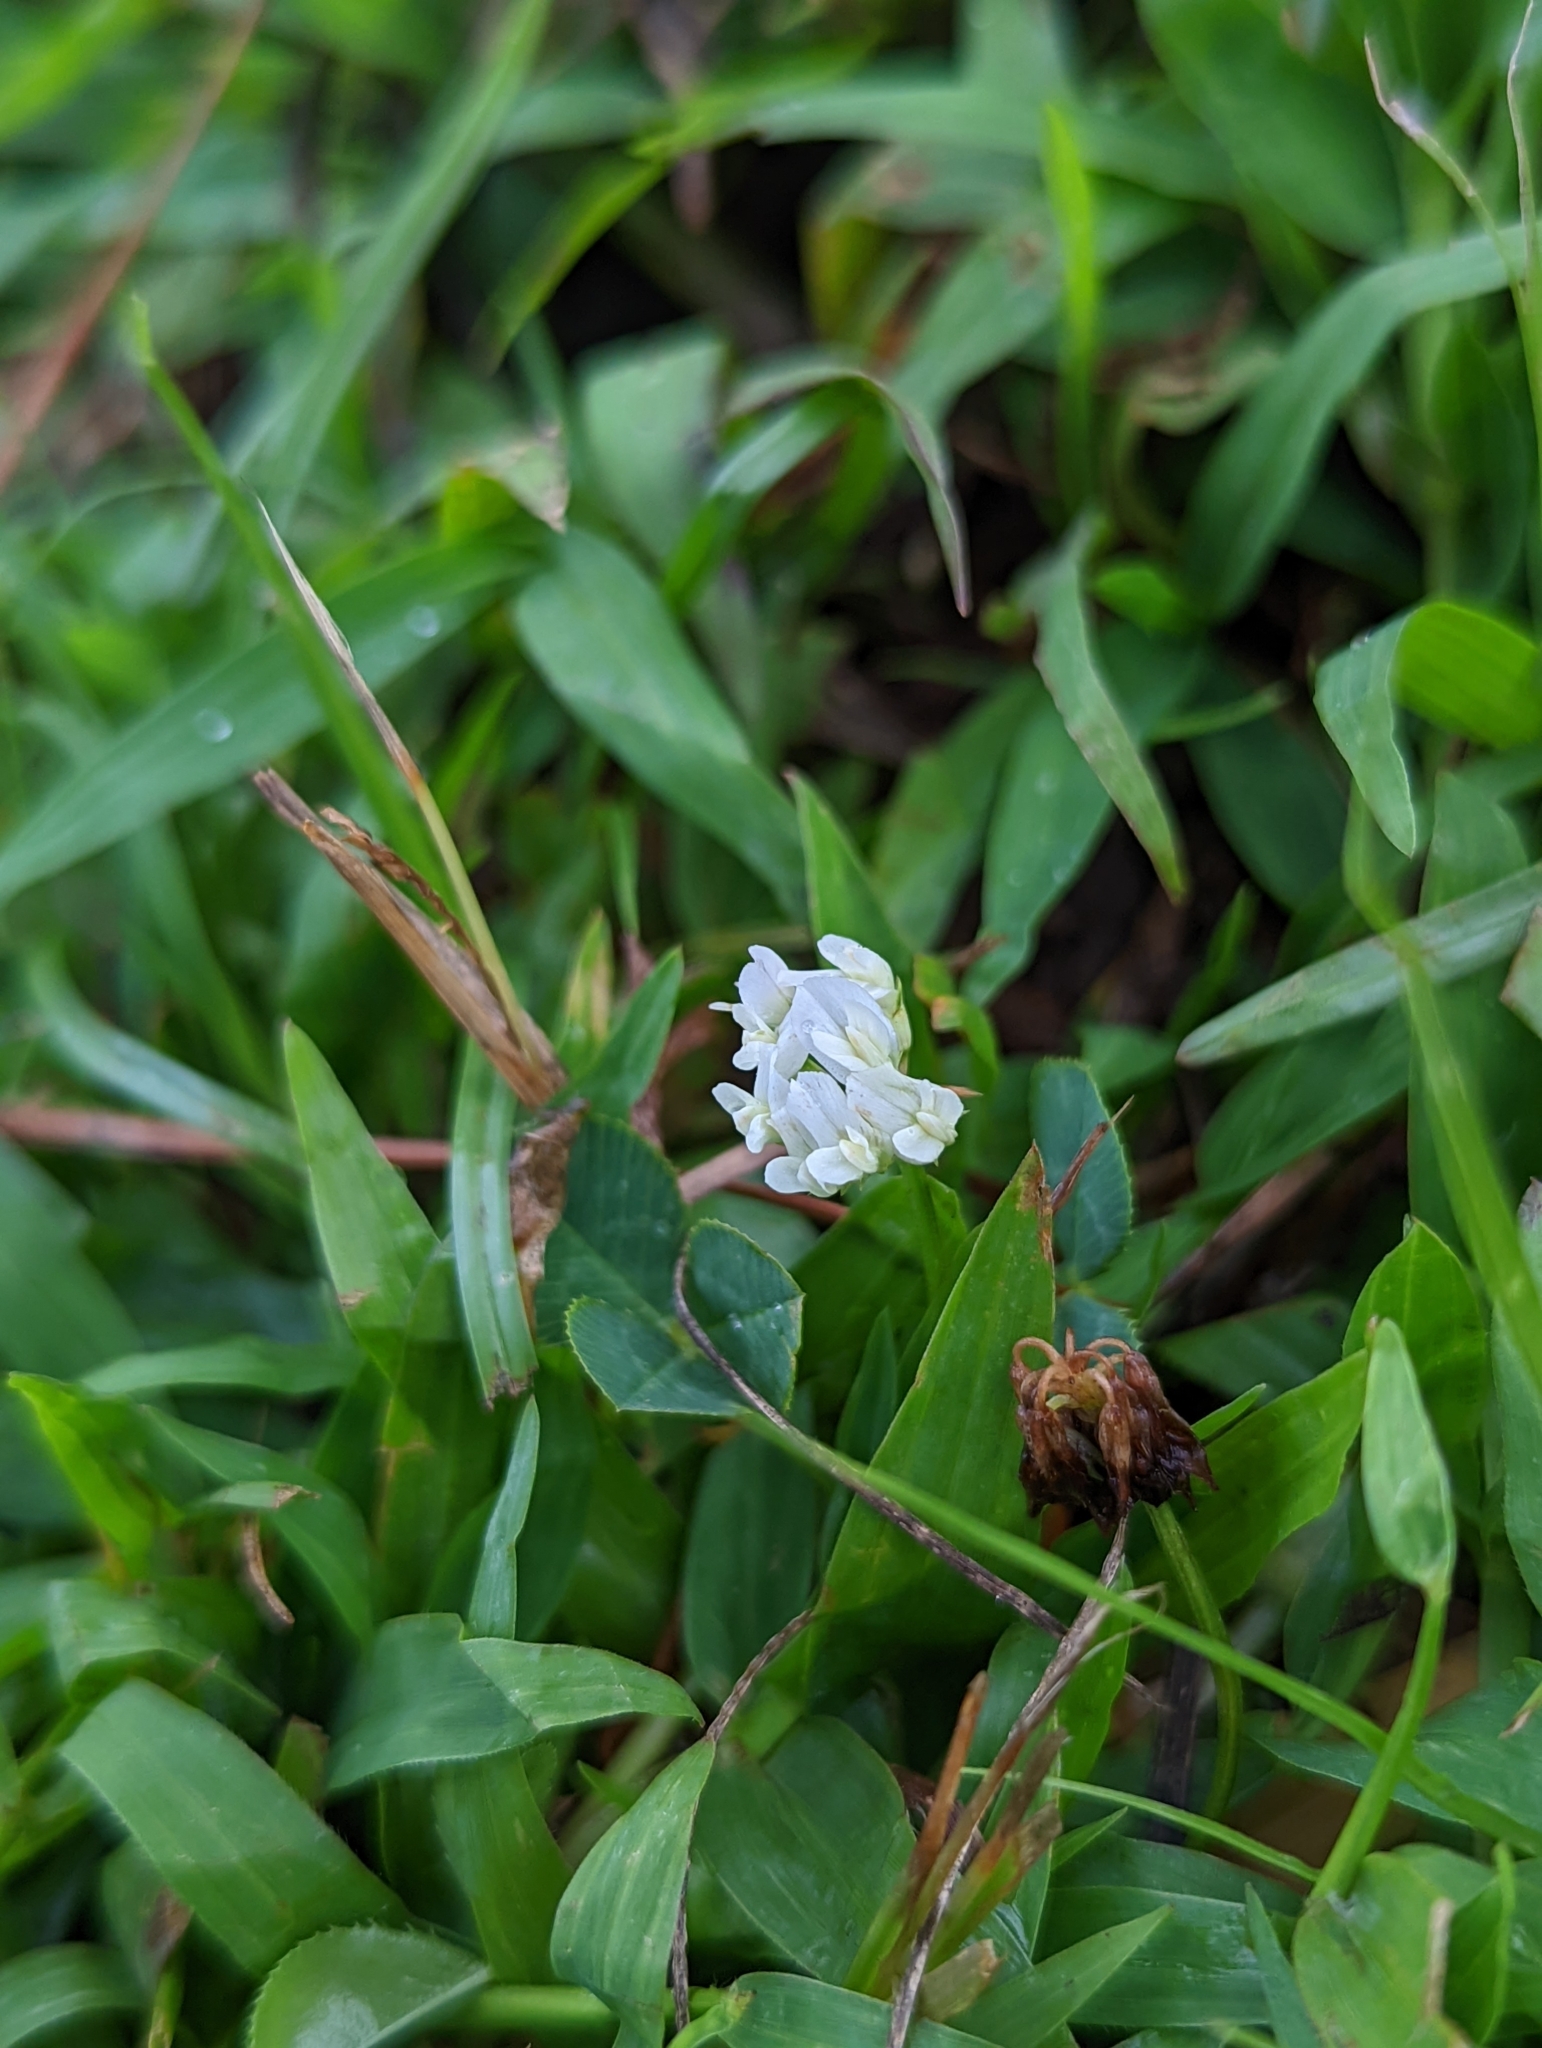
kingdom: Plantae
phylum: Tracheophyta
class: Magnoliopsida
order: Fabales
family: Fabaceae
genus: Trifolium
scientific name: Trifolium repens
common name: White clover
